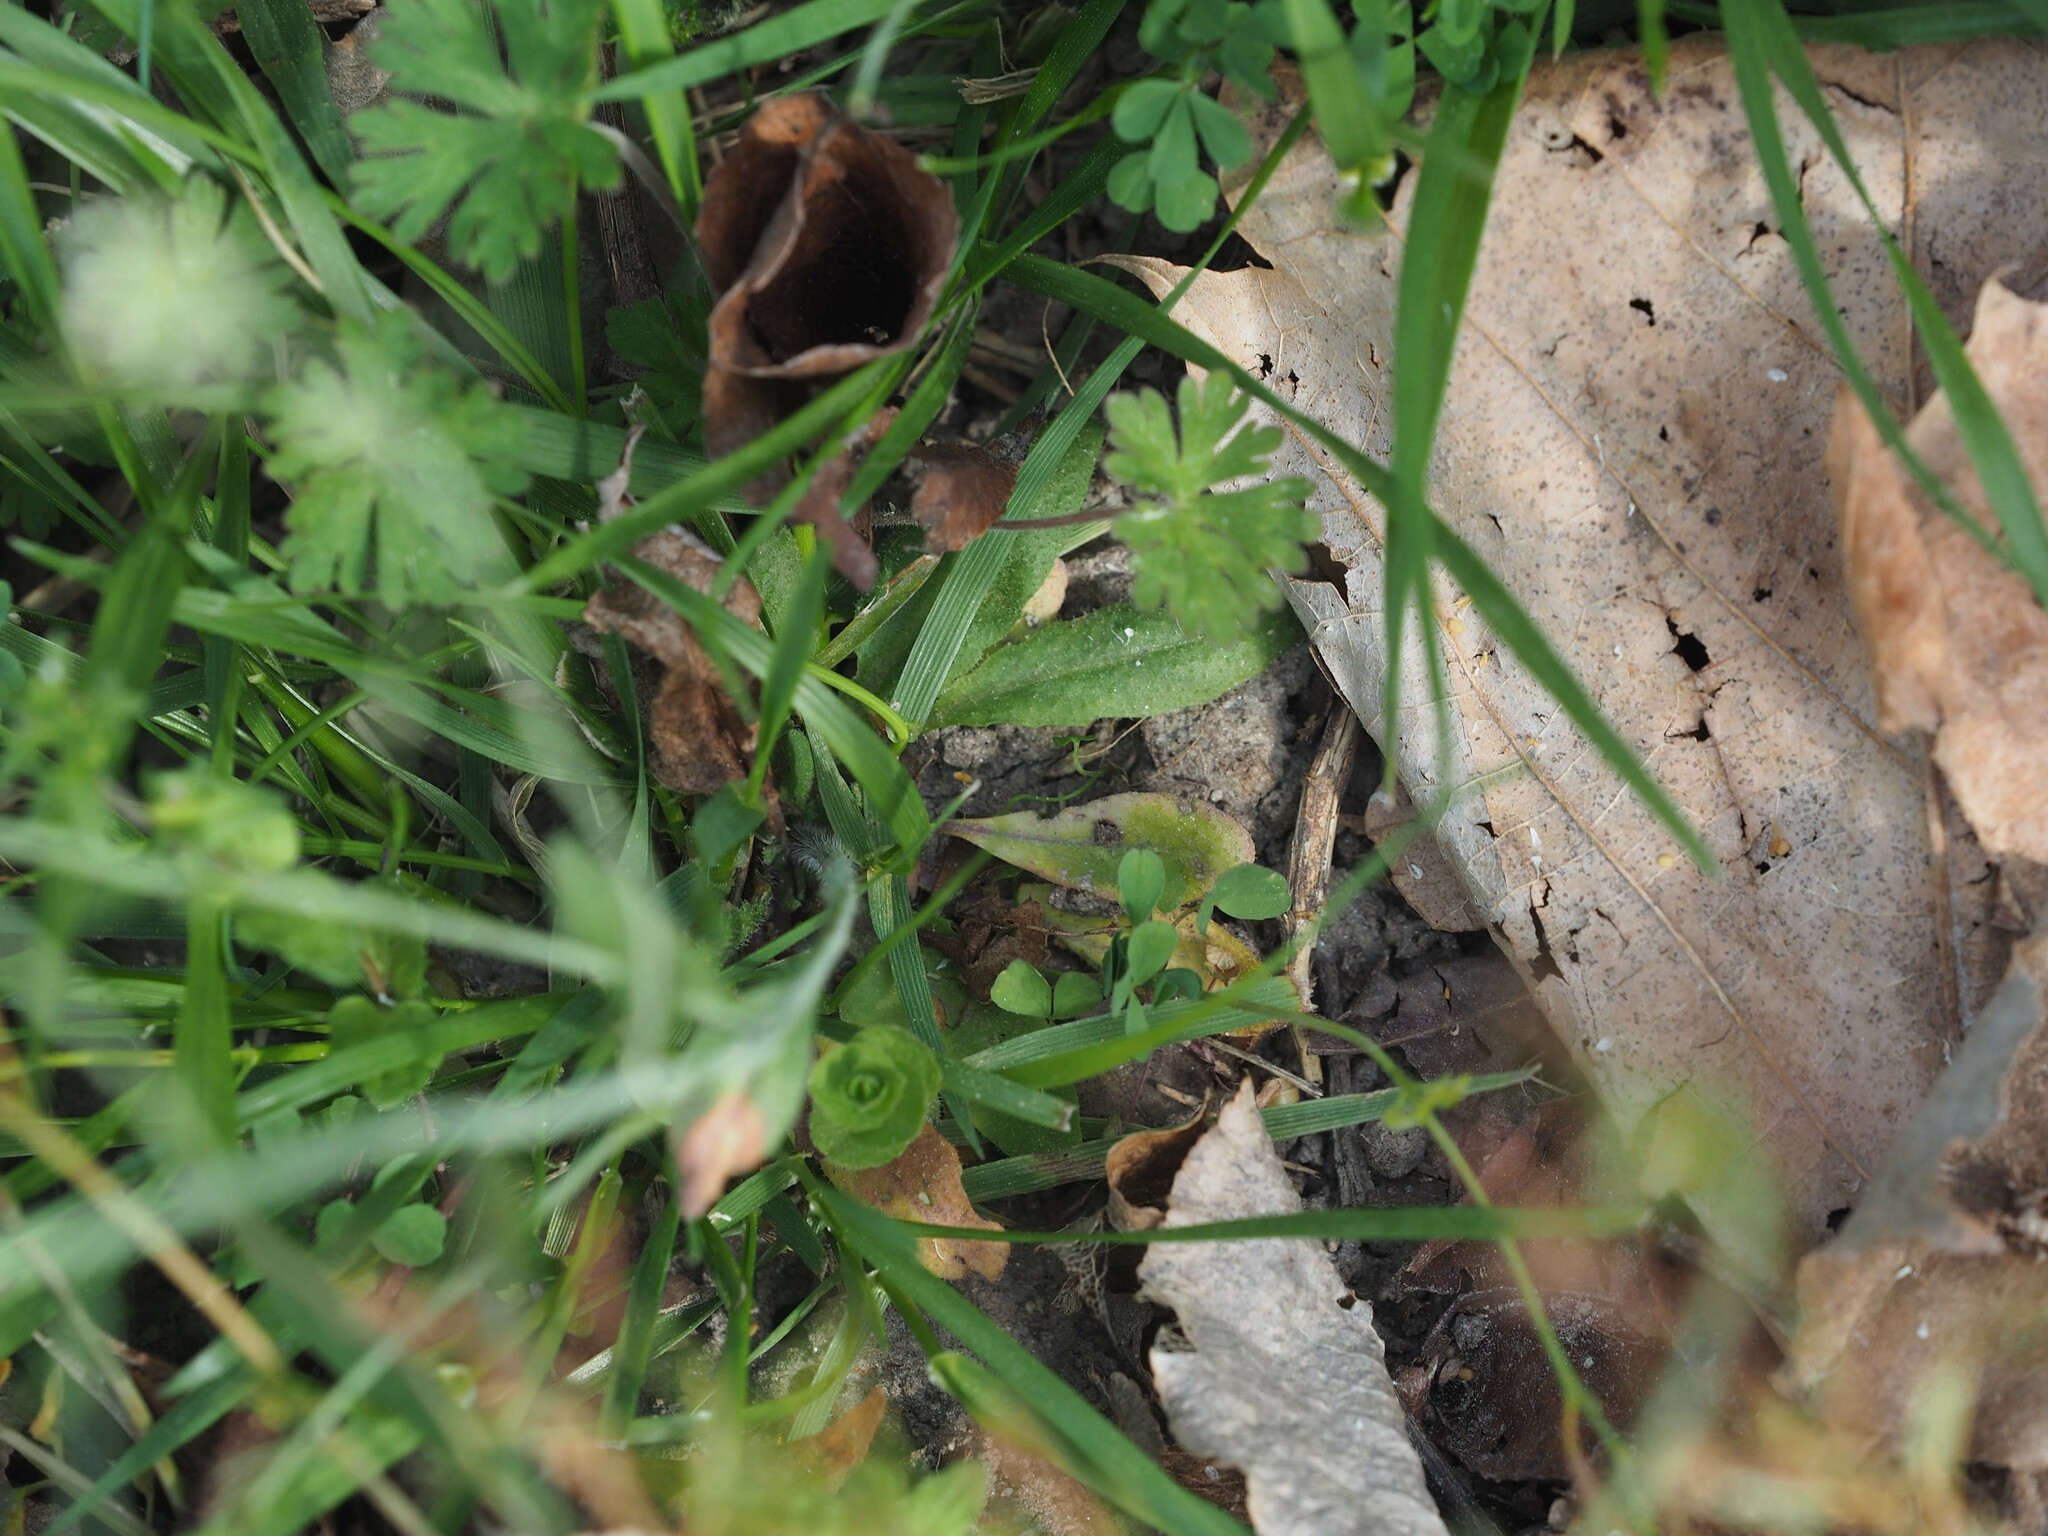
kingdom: Plantae
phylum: Tracheophyta
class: Magnoliopsida
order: Brassicales
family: Brassicaceae
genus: Arabidopsis
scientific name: Arabidopsis thaliana
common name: Thale cress
